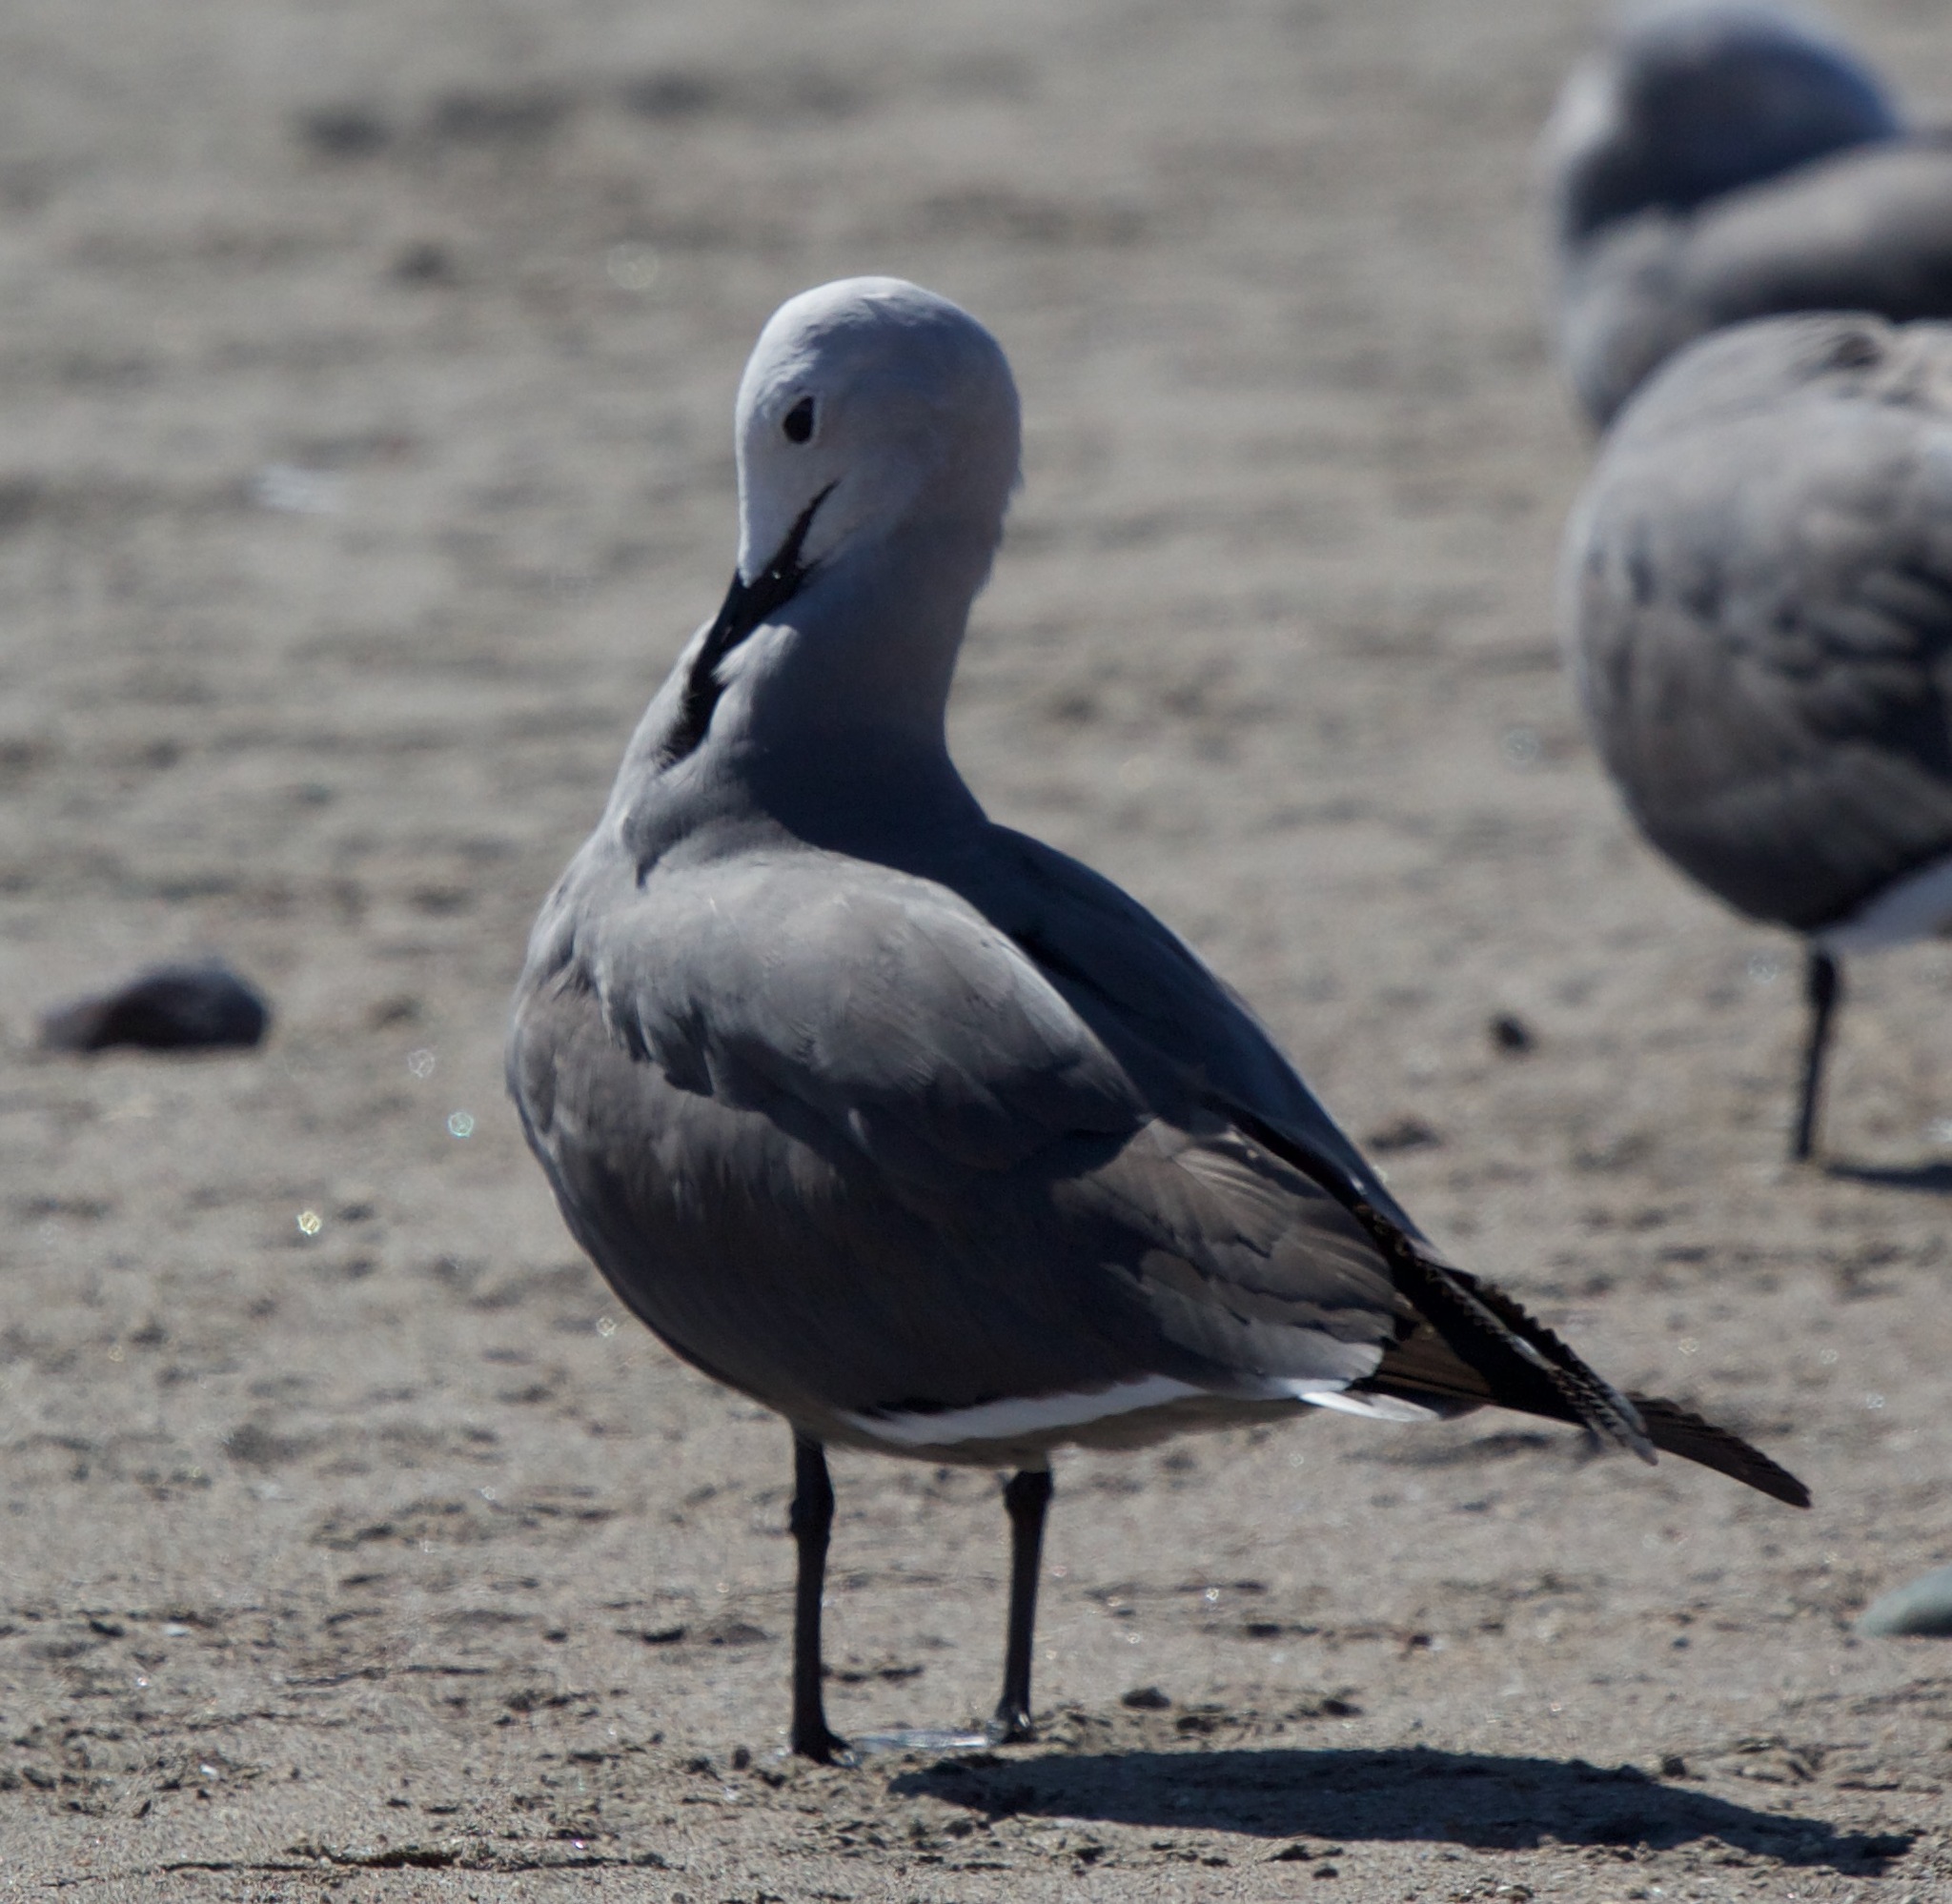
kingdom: Animalia
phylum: Chordata
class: Aves
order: Charadriiformes
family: Laridae
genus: Leucophaeus
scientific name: Leucophaeus modestus
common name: Gray gull
